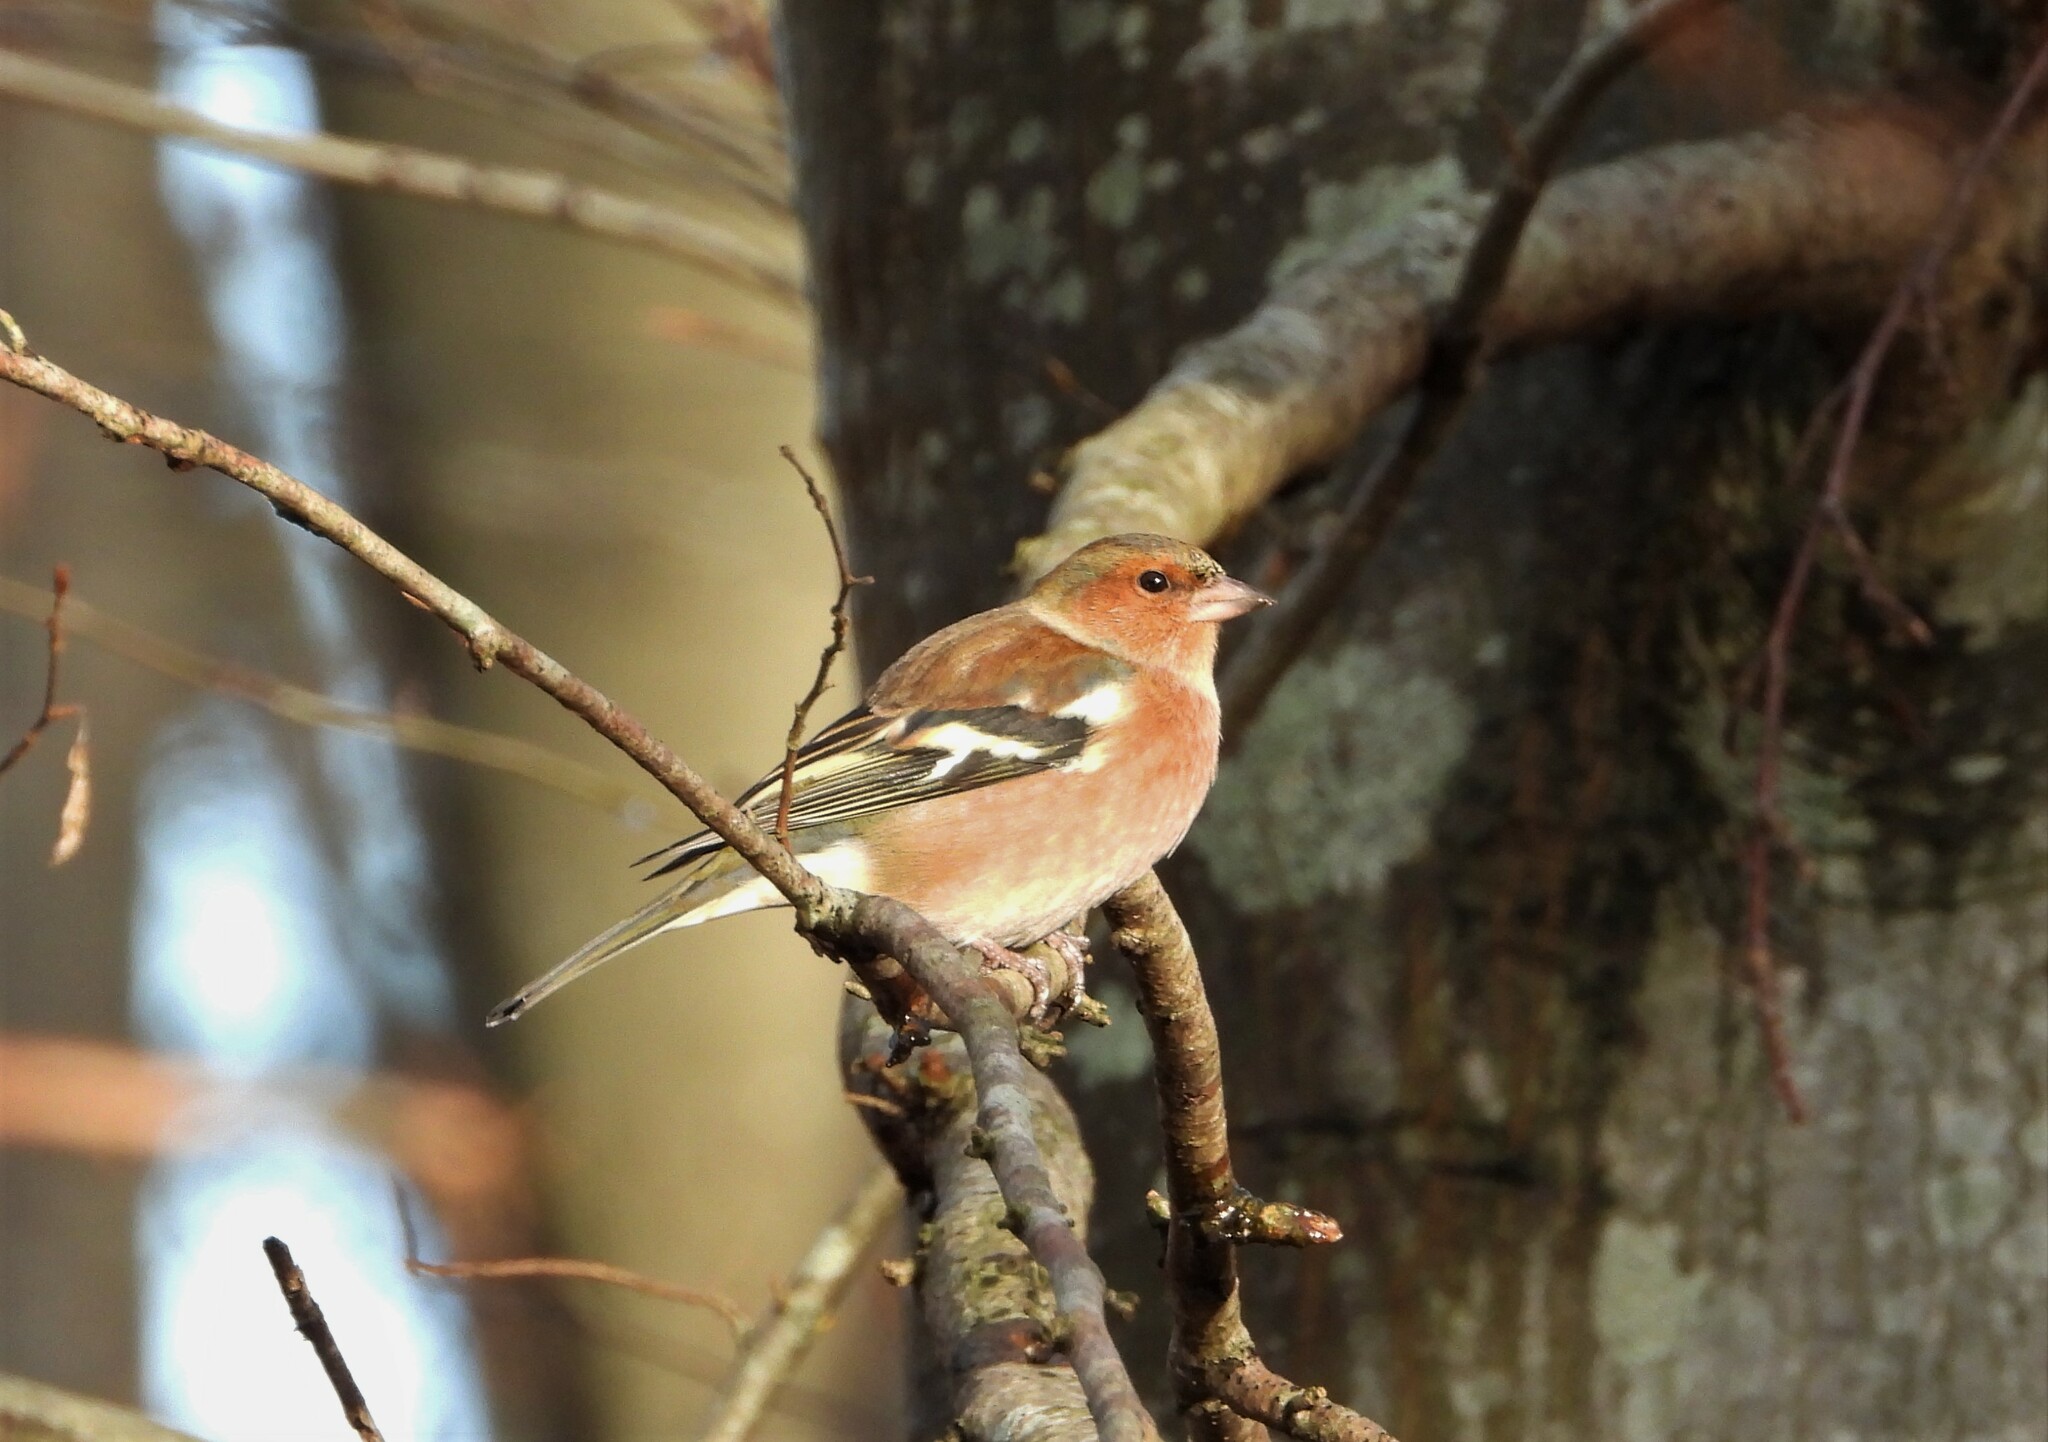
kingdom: Animalia
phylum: Chordata
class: Aves
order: Passeriformes
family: Fringillidae
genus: Fringilla
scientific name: Fringilla coelebs
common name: Common chaffinch
